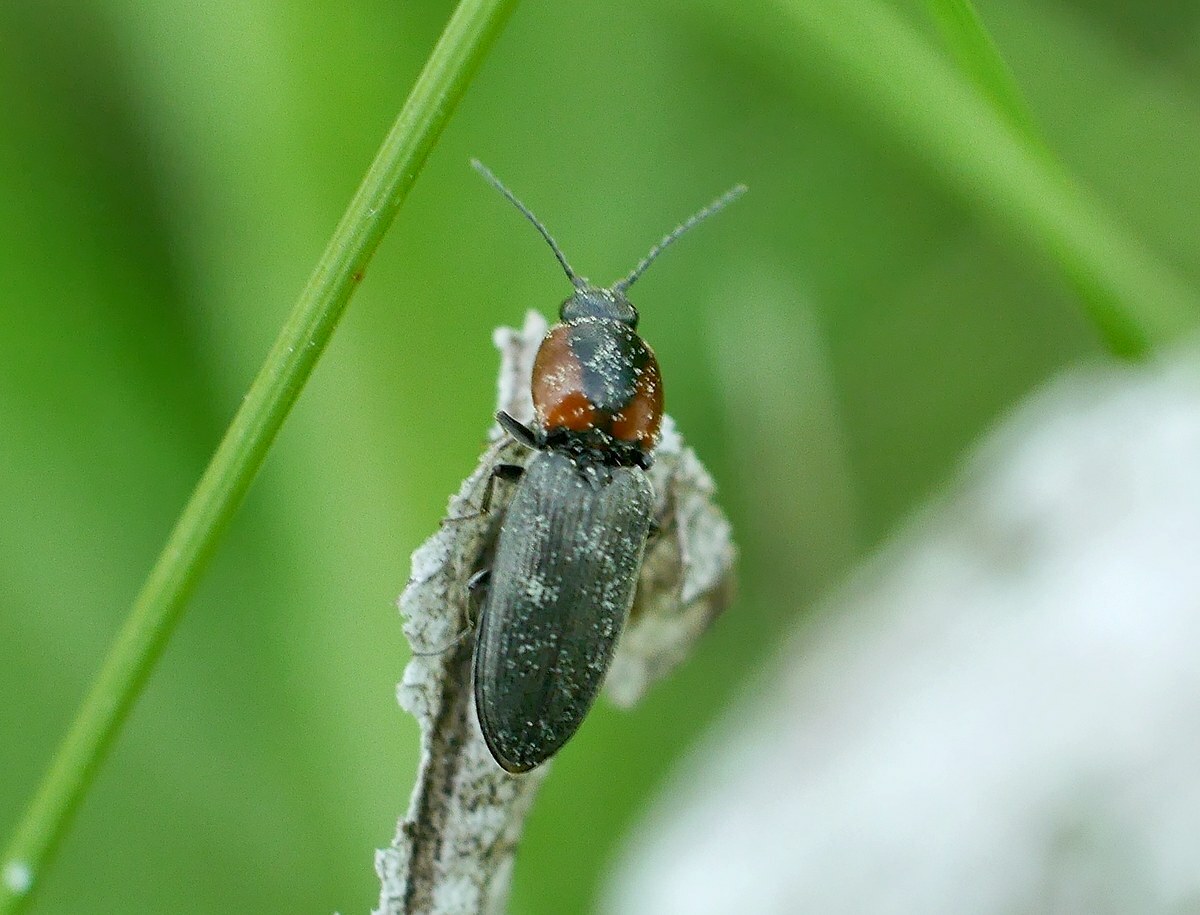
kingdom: Animalia
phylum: Arthropoda
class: Insecta
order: Coleoptera
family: Elateridae
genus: Cardiophorus
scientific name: Cardiophorus discicollis
